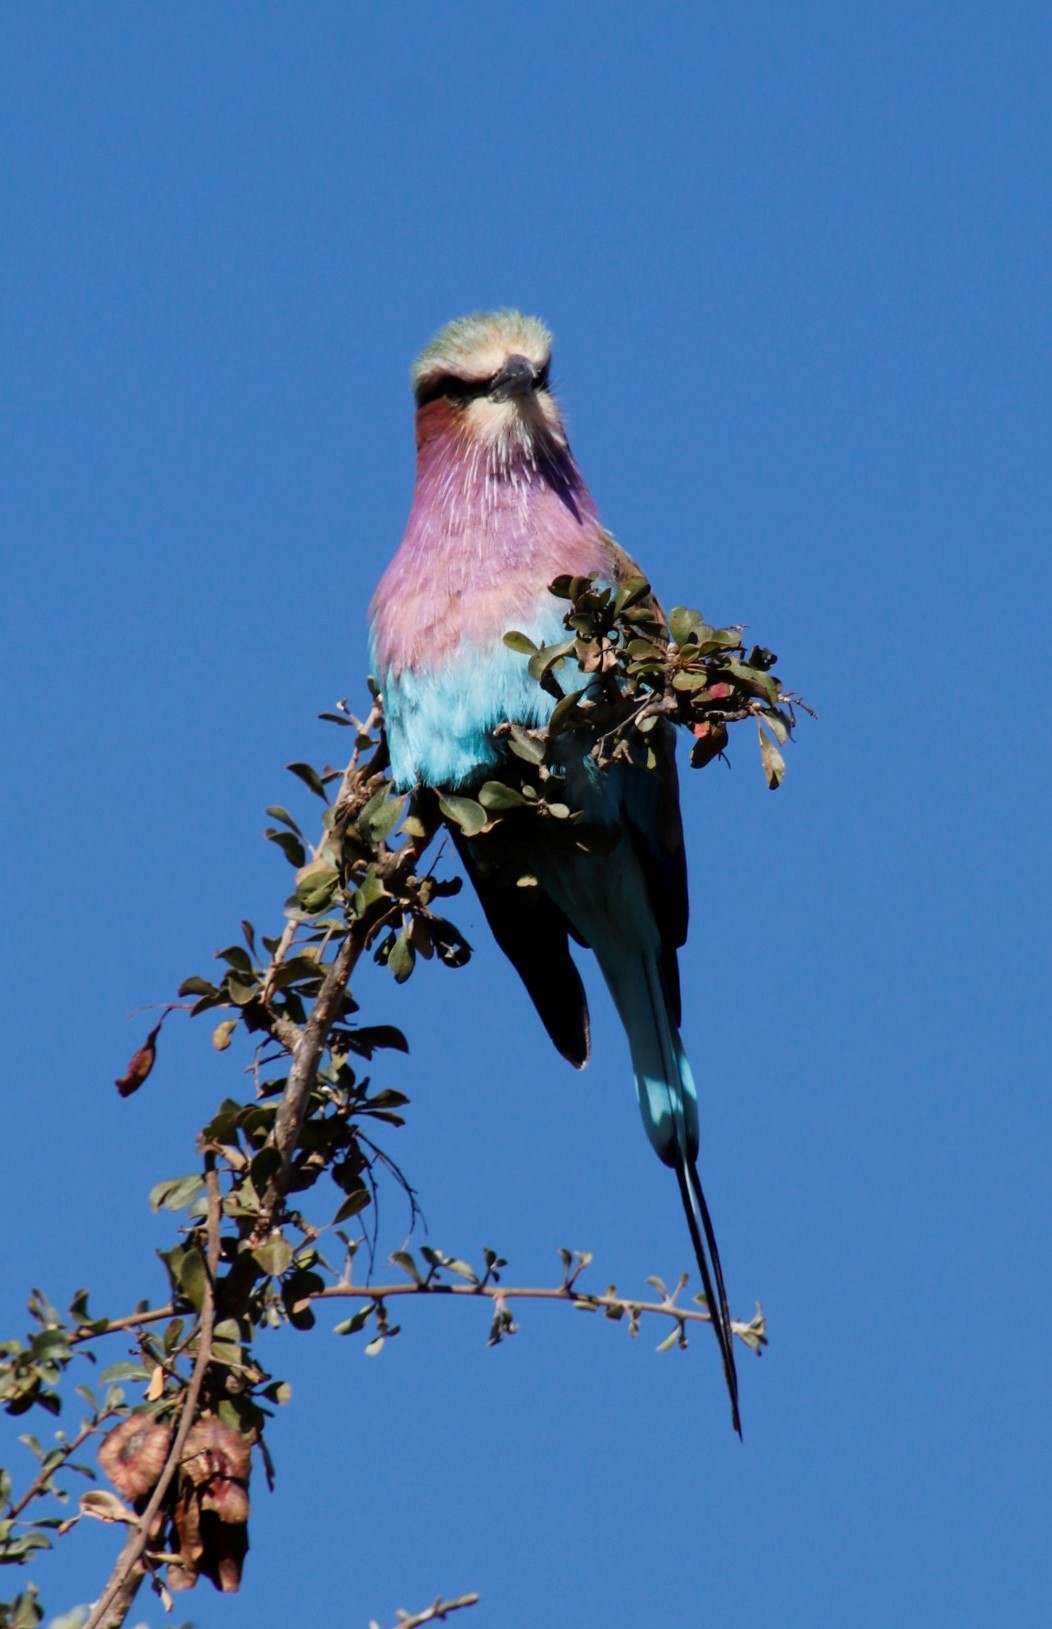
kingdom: Animalia
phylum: Chordata
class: Aves
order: Coraciiformes
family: Coraciidae
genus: Coracias
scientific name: Coracias caudatus
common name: Lilac-breasted roller
